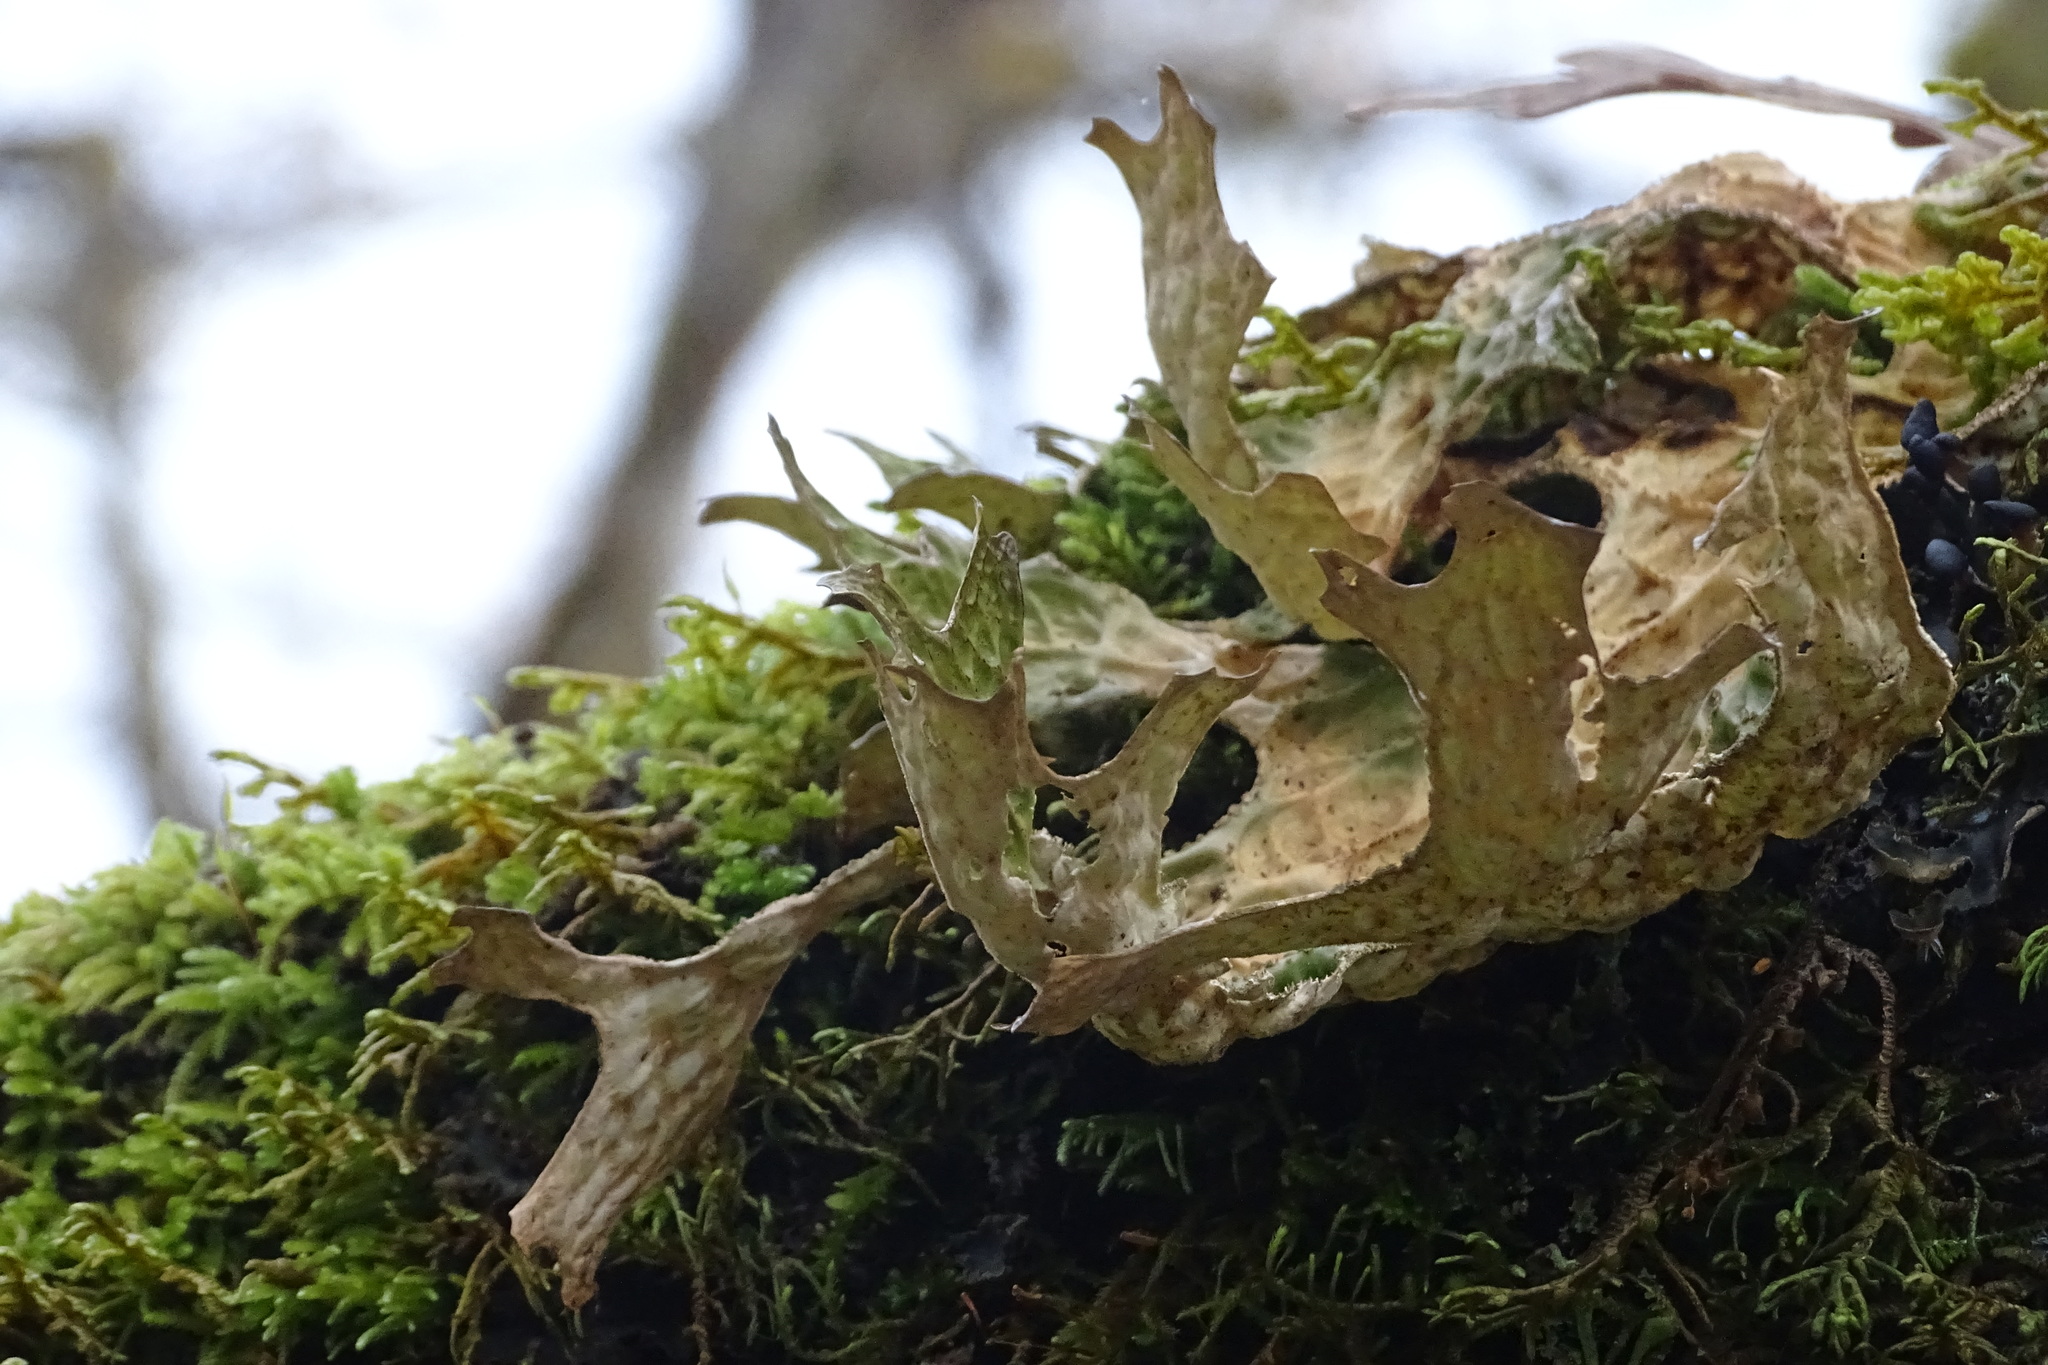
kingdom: Fungi
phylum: Ascomycota
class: Lecanoromycetes
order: Peltigerales
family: Lobariaceae
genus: Lobaria
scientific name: Lobaria pulmonaria
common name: Lungwort
